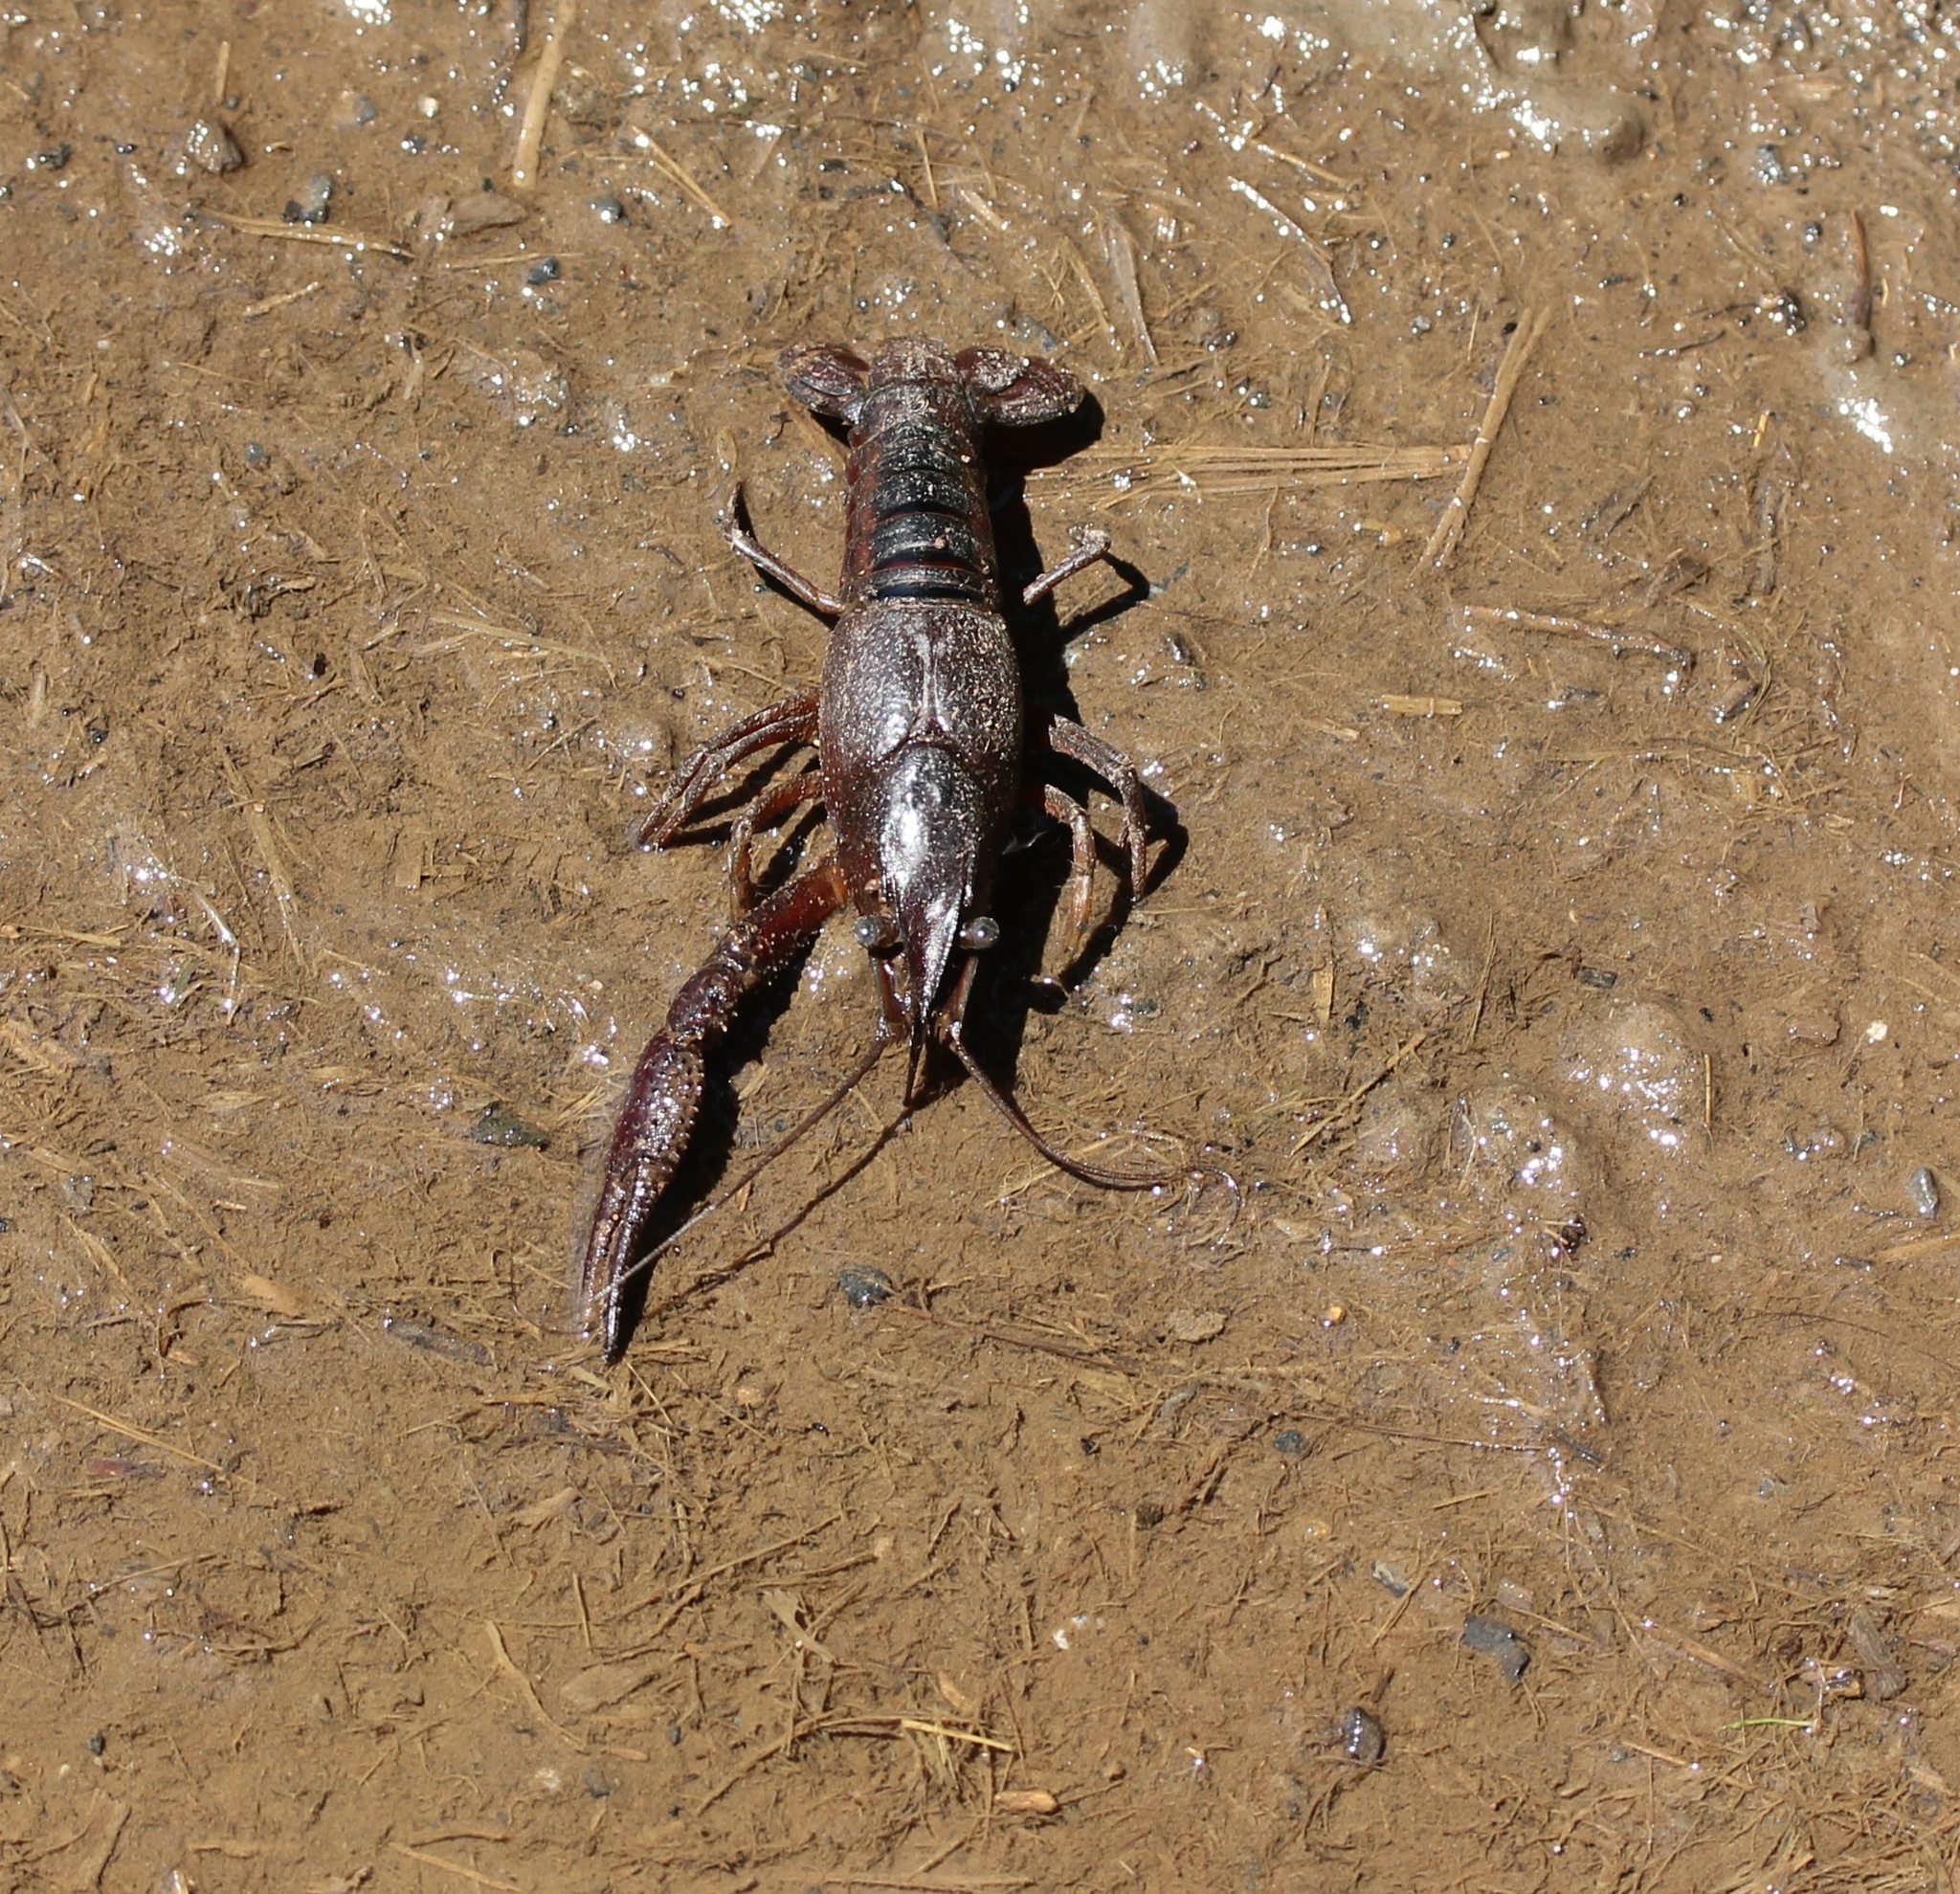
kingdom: Animalia
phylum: Arthropoda
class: Malacostraca
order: Decapoda
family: Cambaridae
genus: Procambarus
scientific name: Procambarus acutus
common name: White river crayfish
